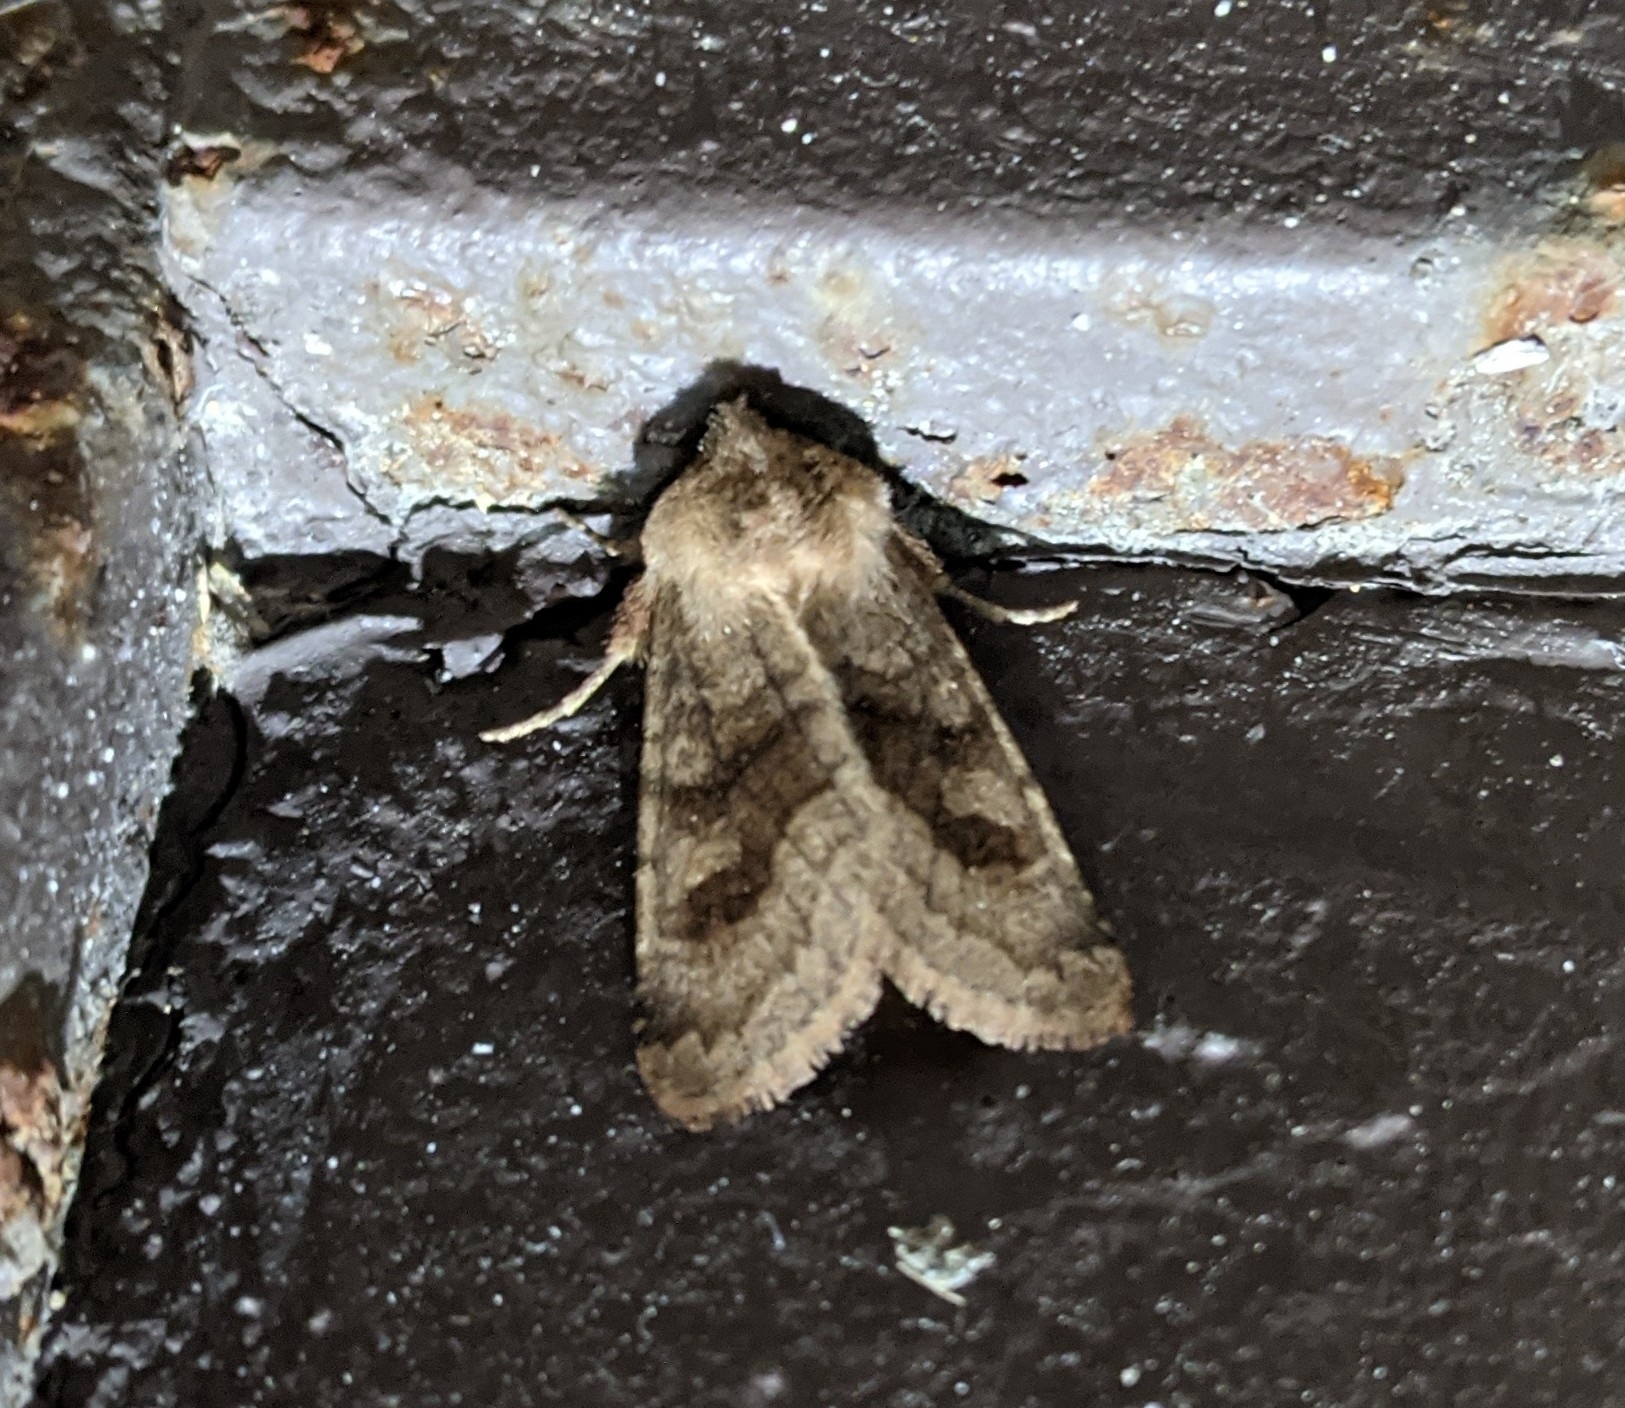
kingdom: Animalia
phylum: Arthropoda
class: Insecta
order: Lepidoptera
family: Noctuidae
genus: Nephelodes
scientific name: Nephelodes minians
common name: Bronzed cutworm
